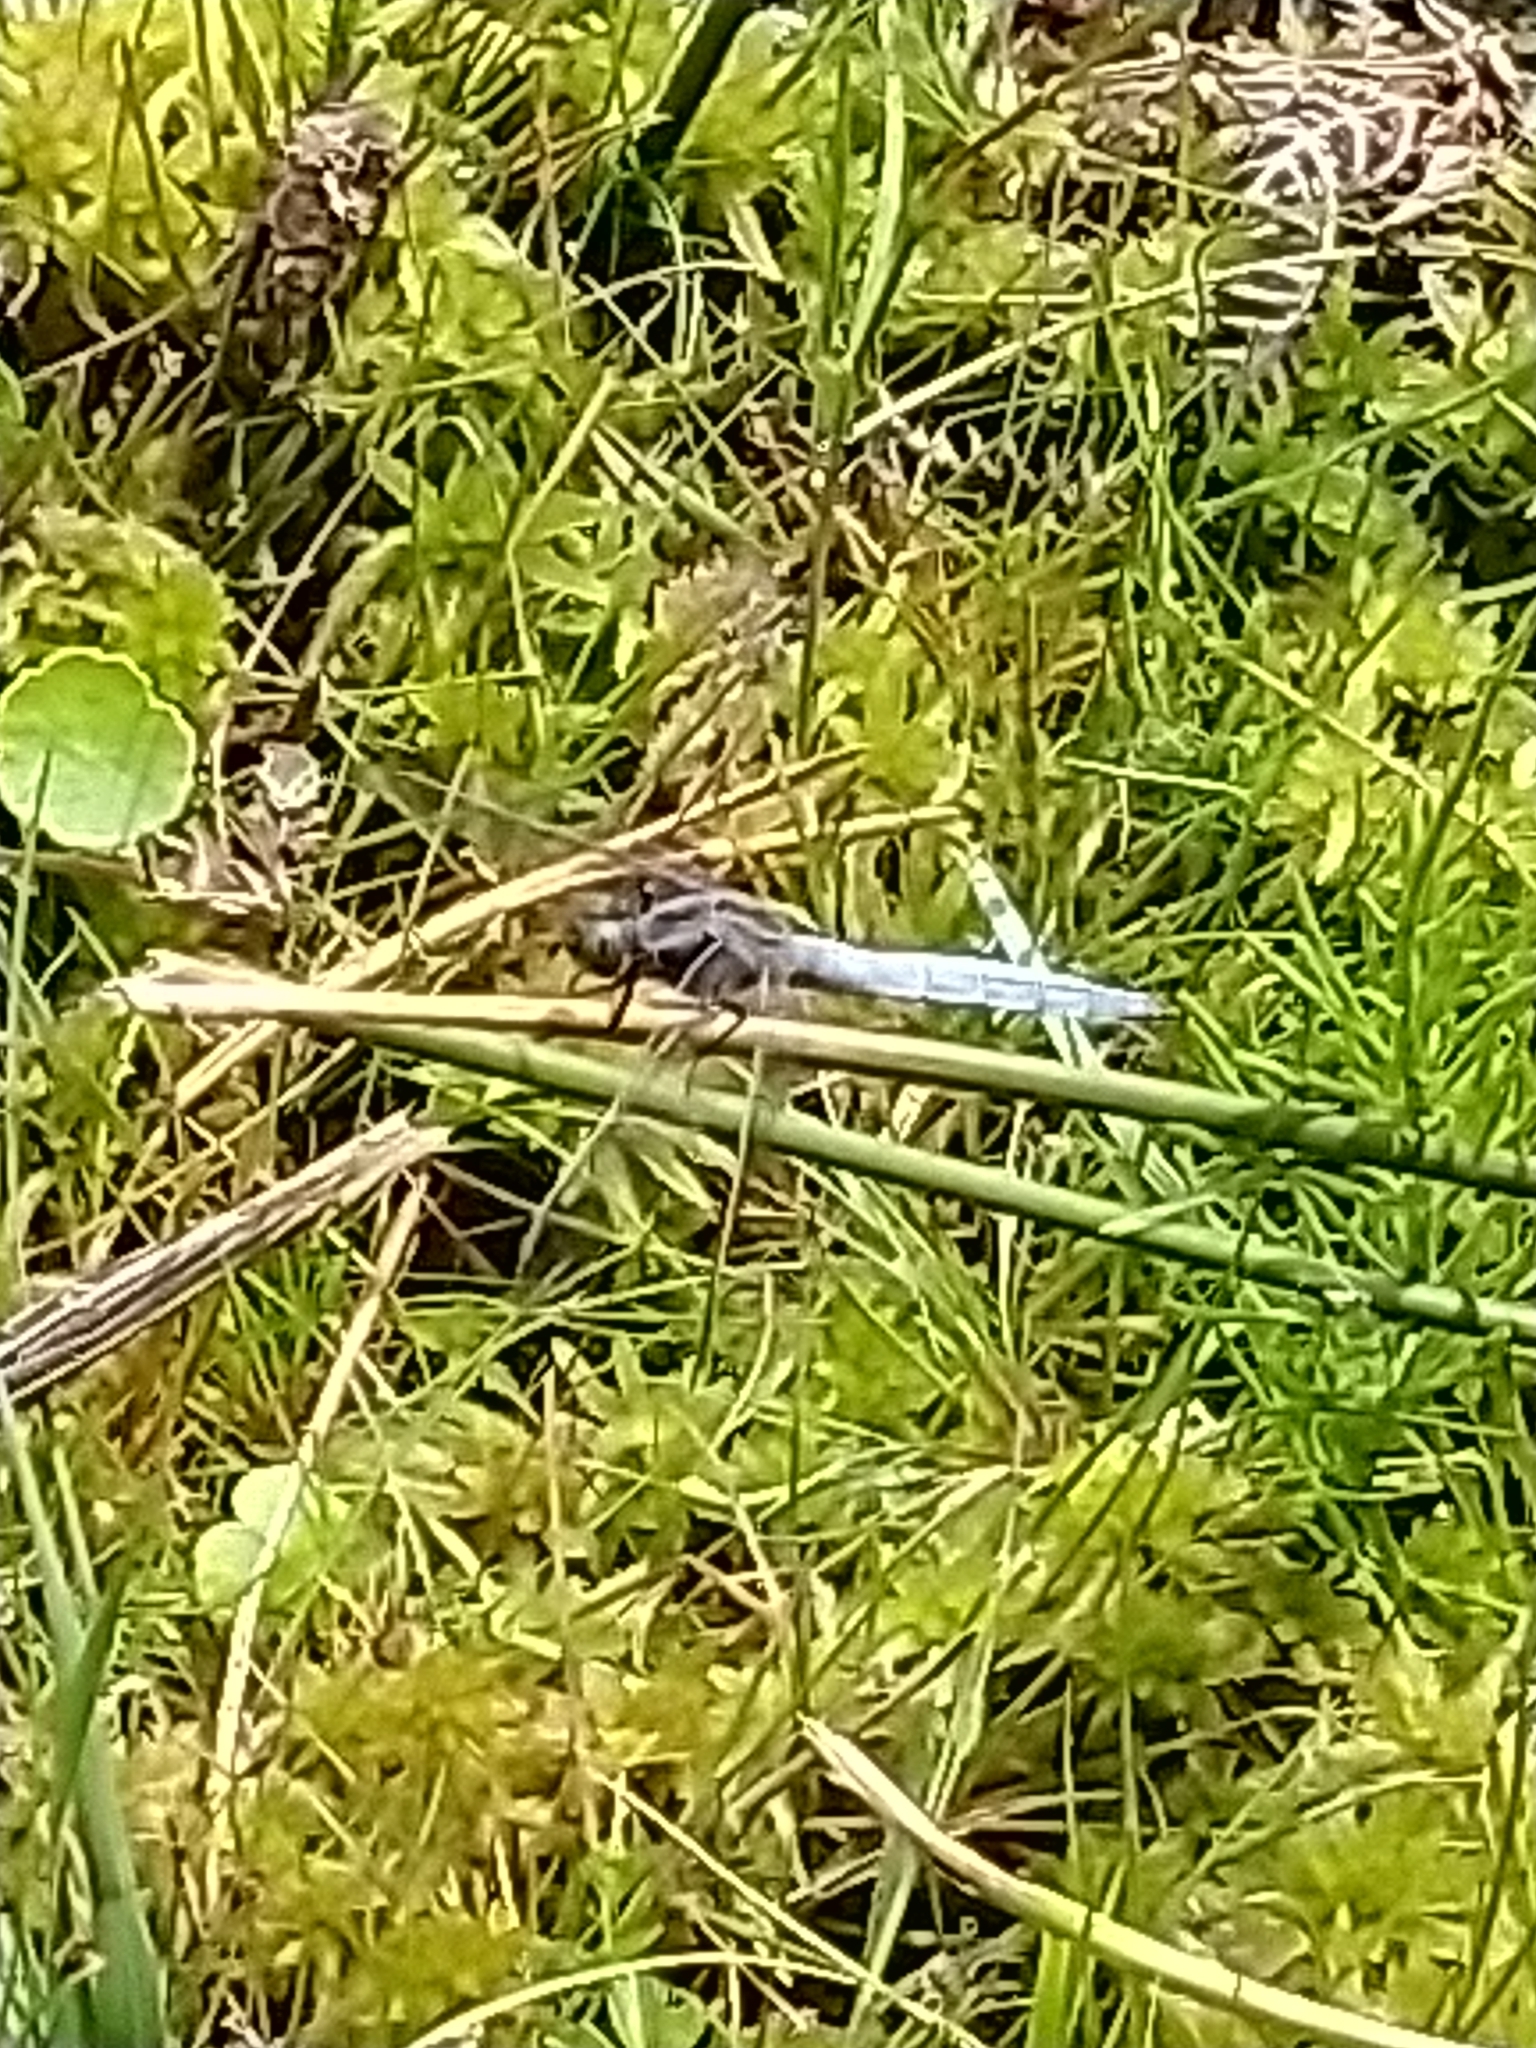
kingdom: Animalia
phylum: Arthropoda
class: Insecta
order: Odonata
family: Libellulidae
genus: Orthetrum
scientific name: Orthetrum coerulescens
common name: Keeled skimmer
